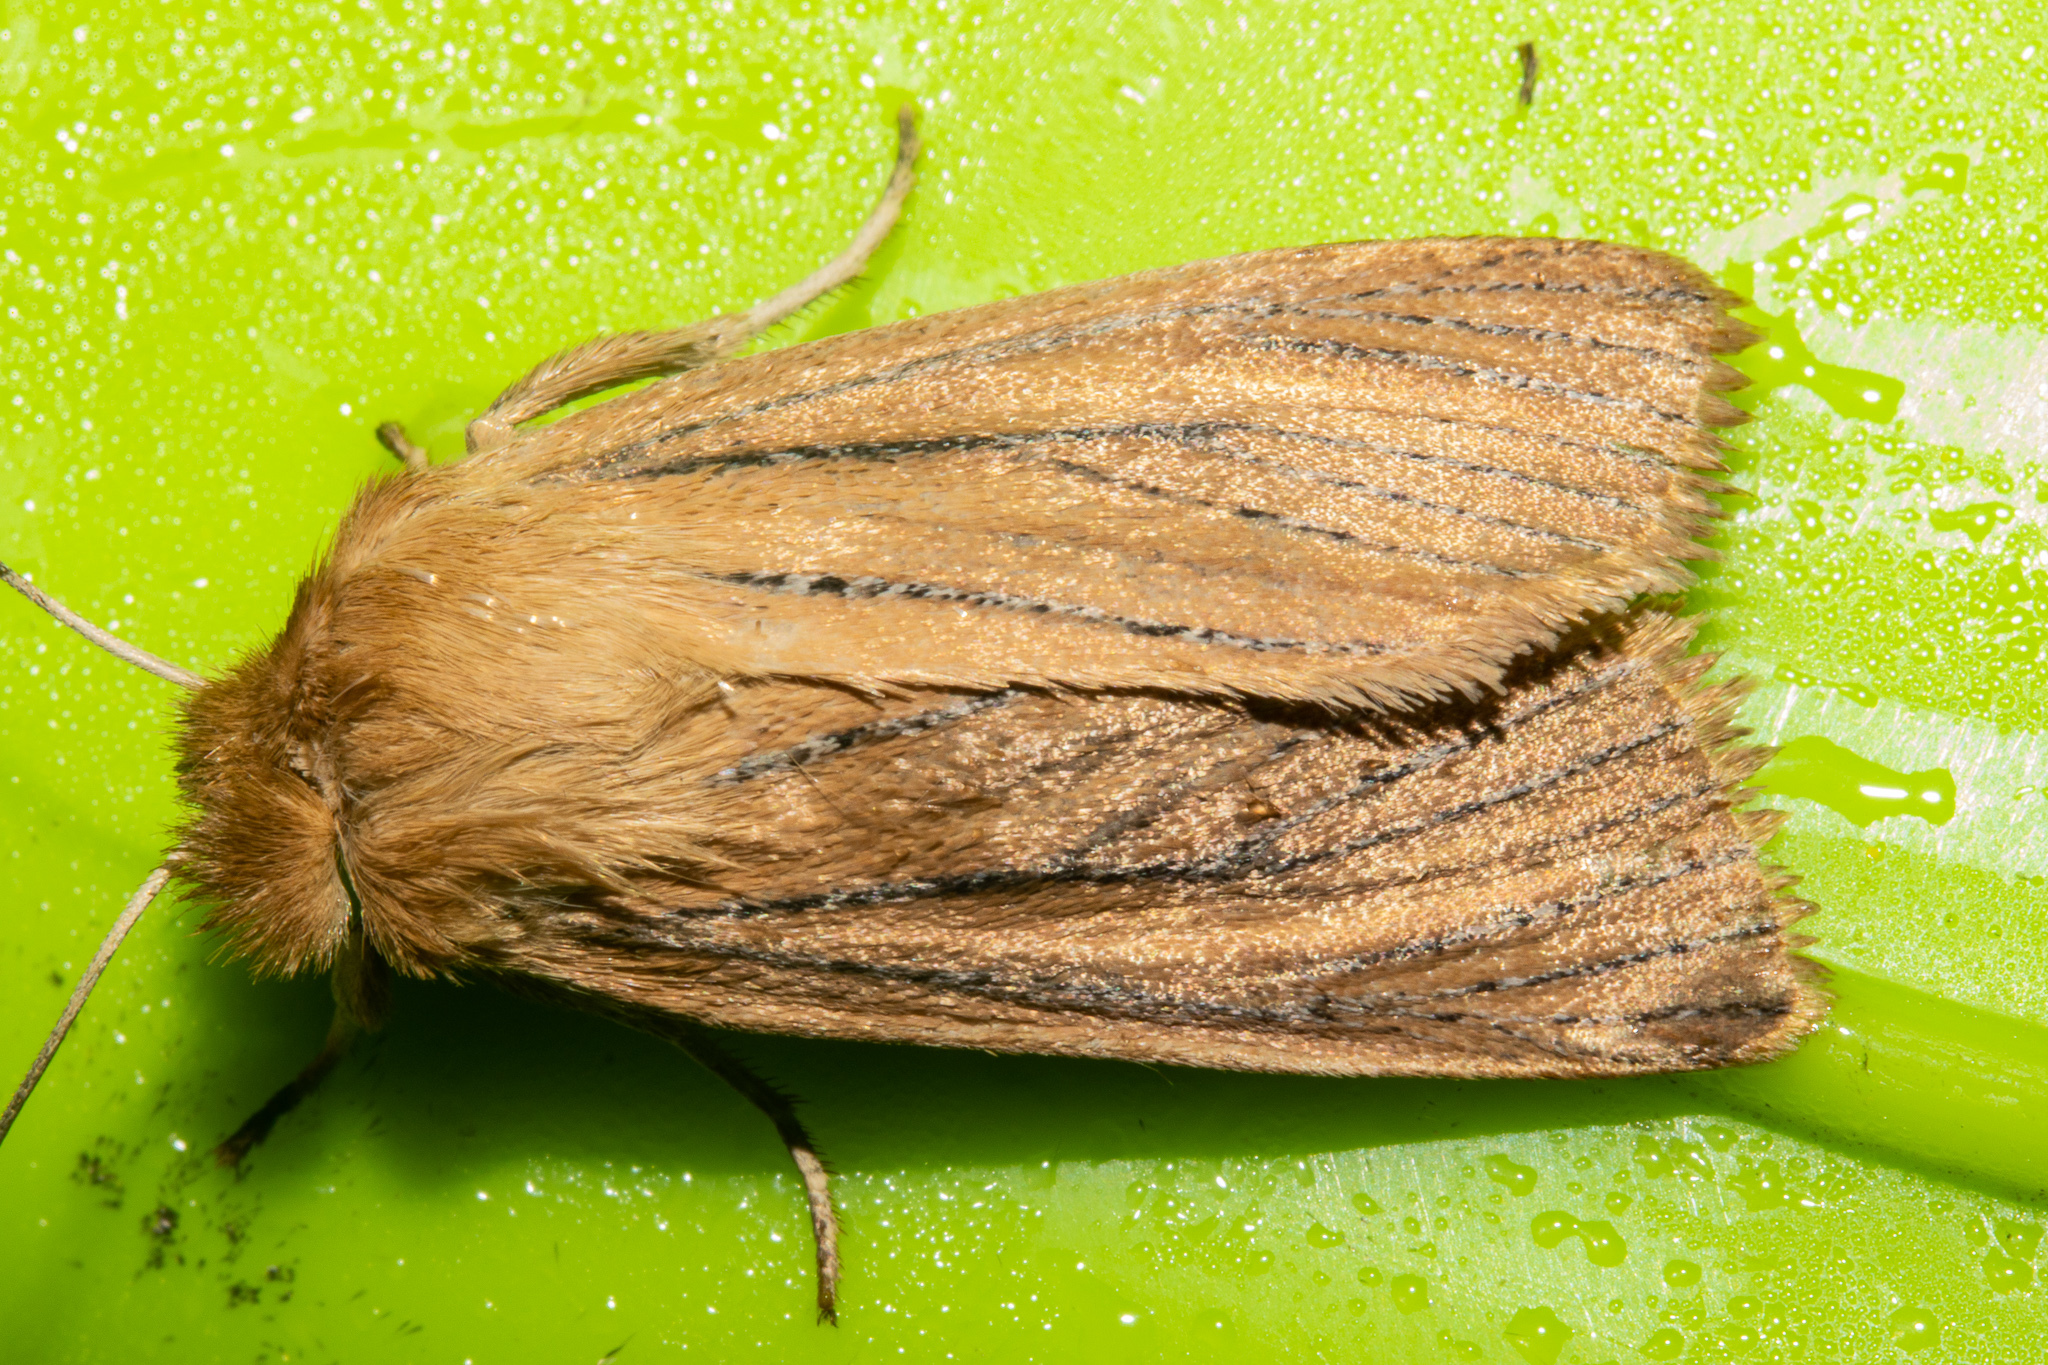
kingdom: Animalia
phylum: Arthropoda
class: Insecta
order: Lepidoptera
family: Noctuidae
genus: Ichneutica
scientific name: Ichneutica
